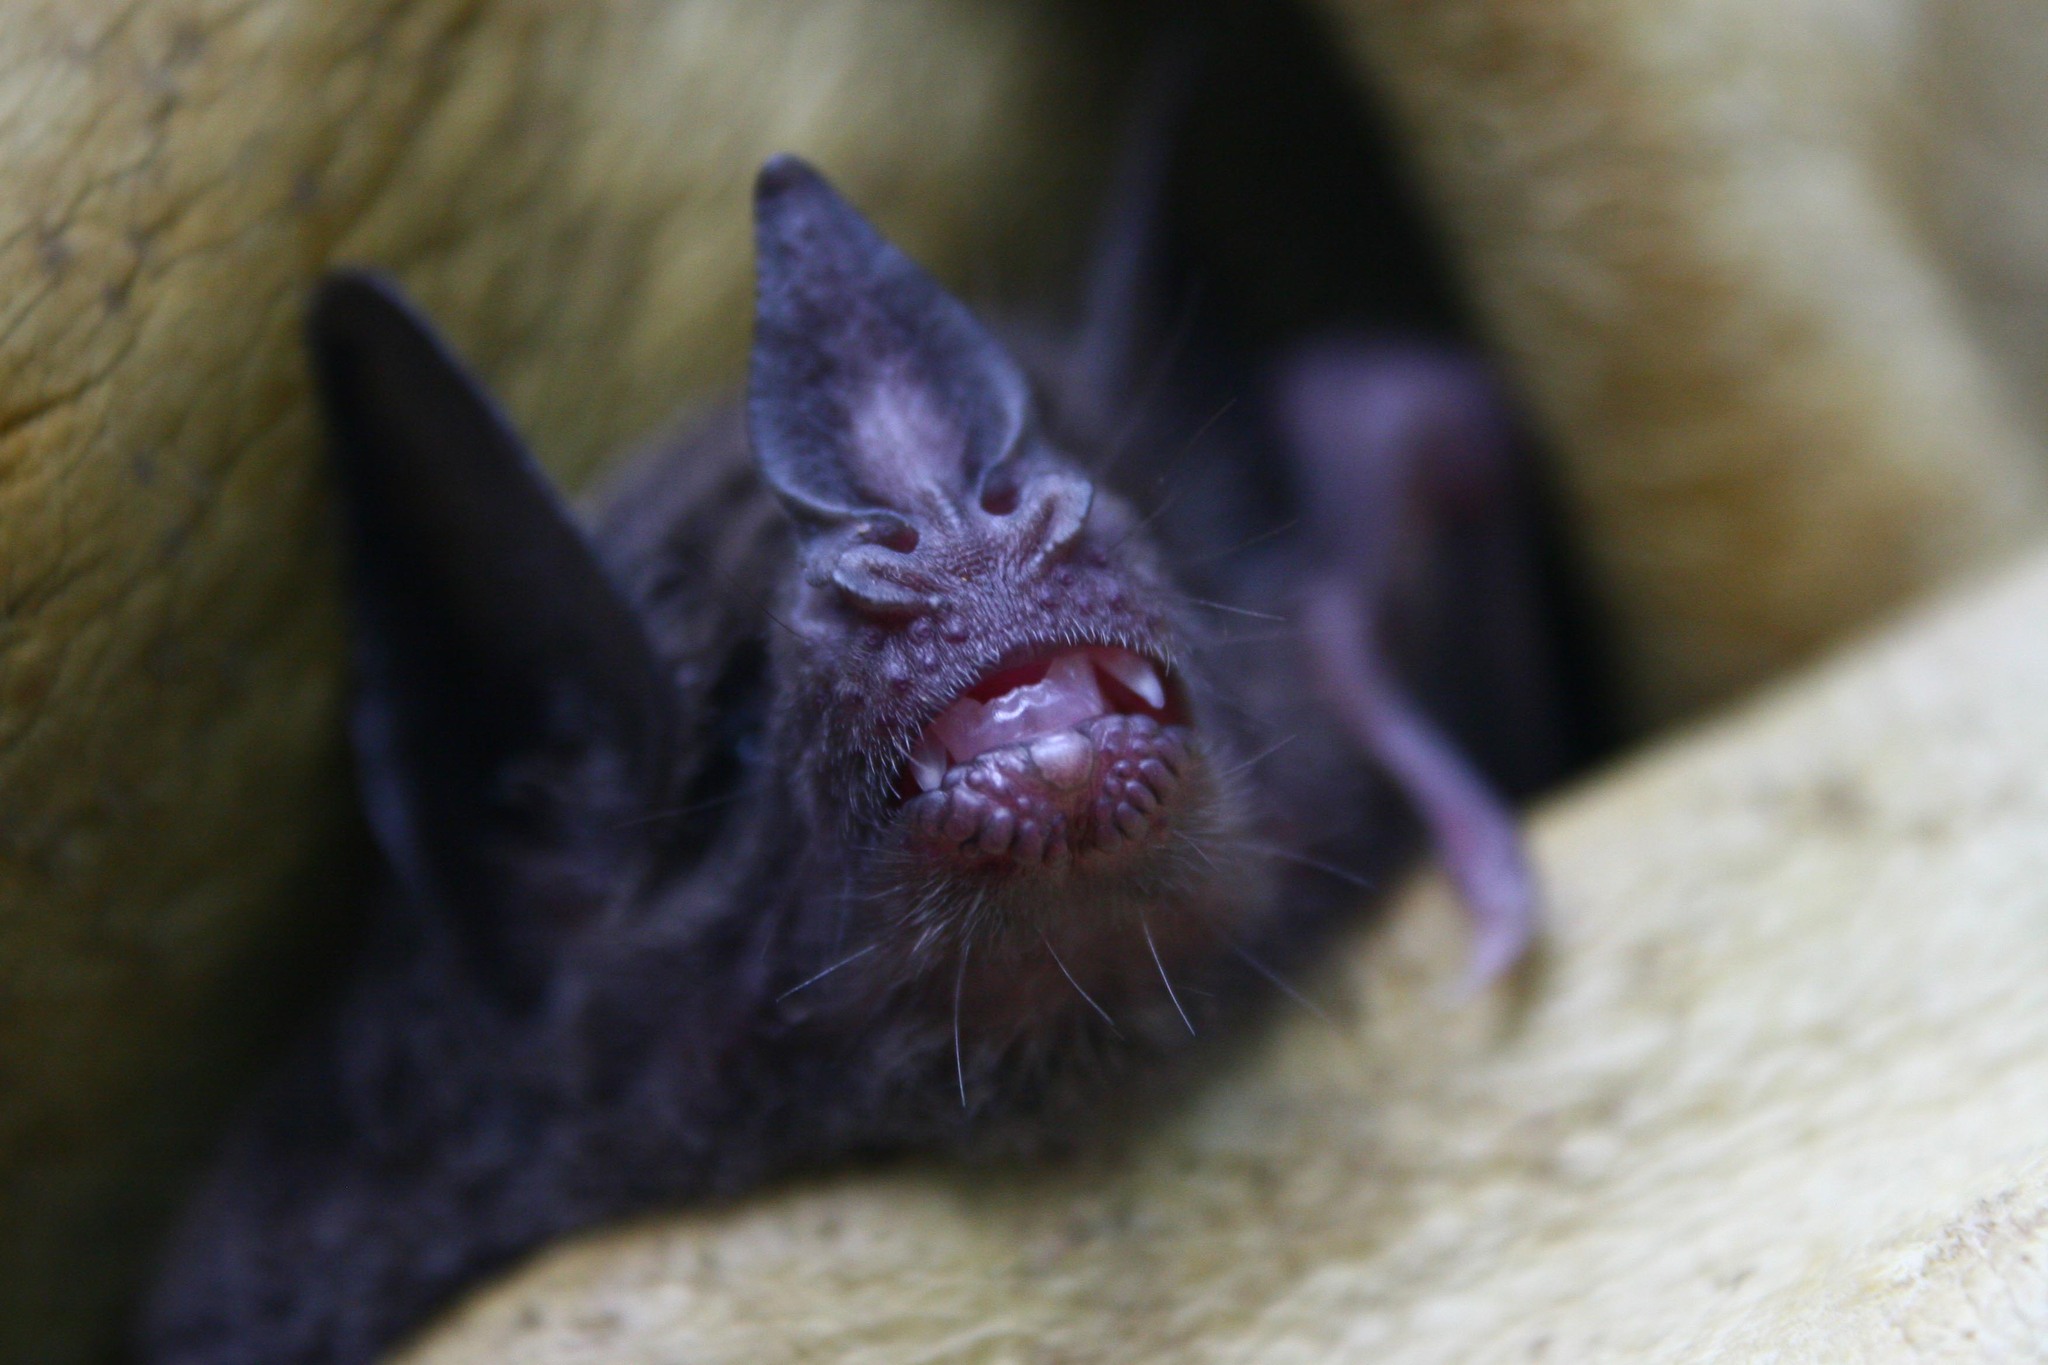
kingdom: Animalia
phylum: Chordata
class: Mammalia
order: Chiroptera
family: Phyllostomidae
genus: Carollia
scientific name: Carollia subrufa
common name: Gray short-tailed bat
